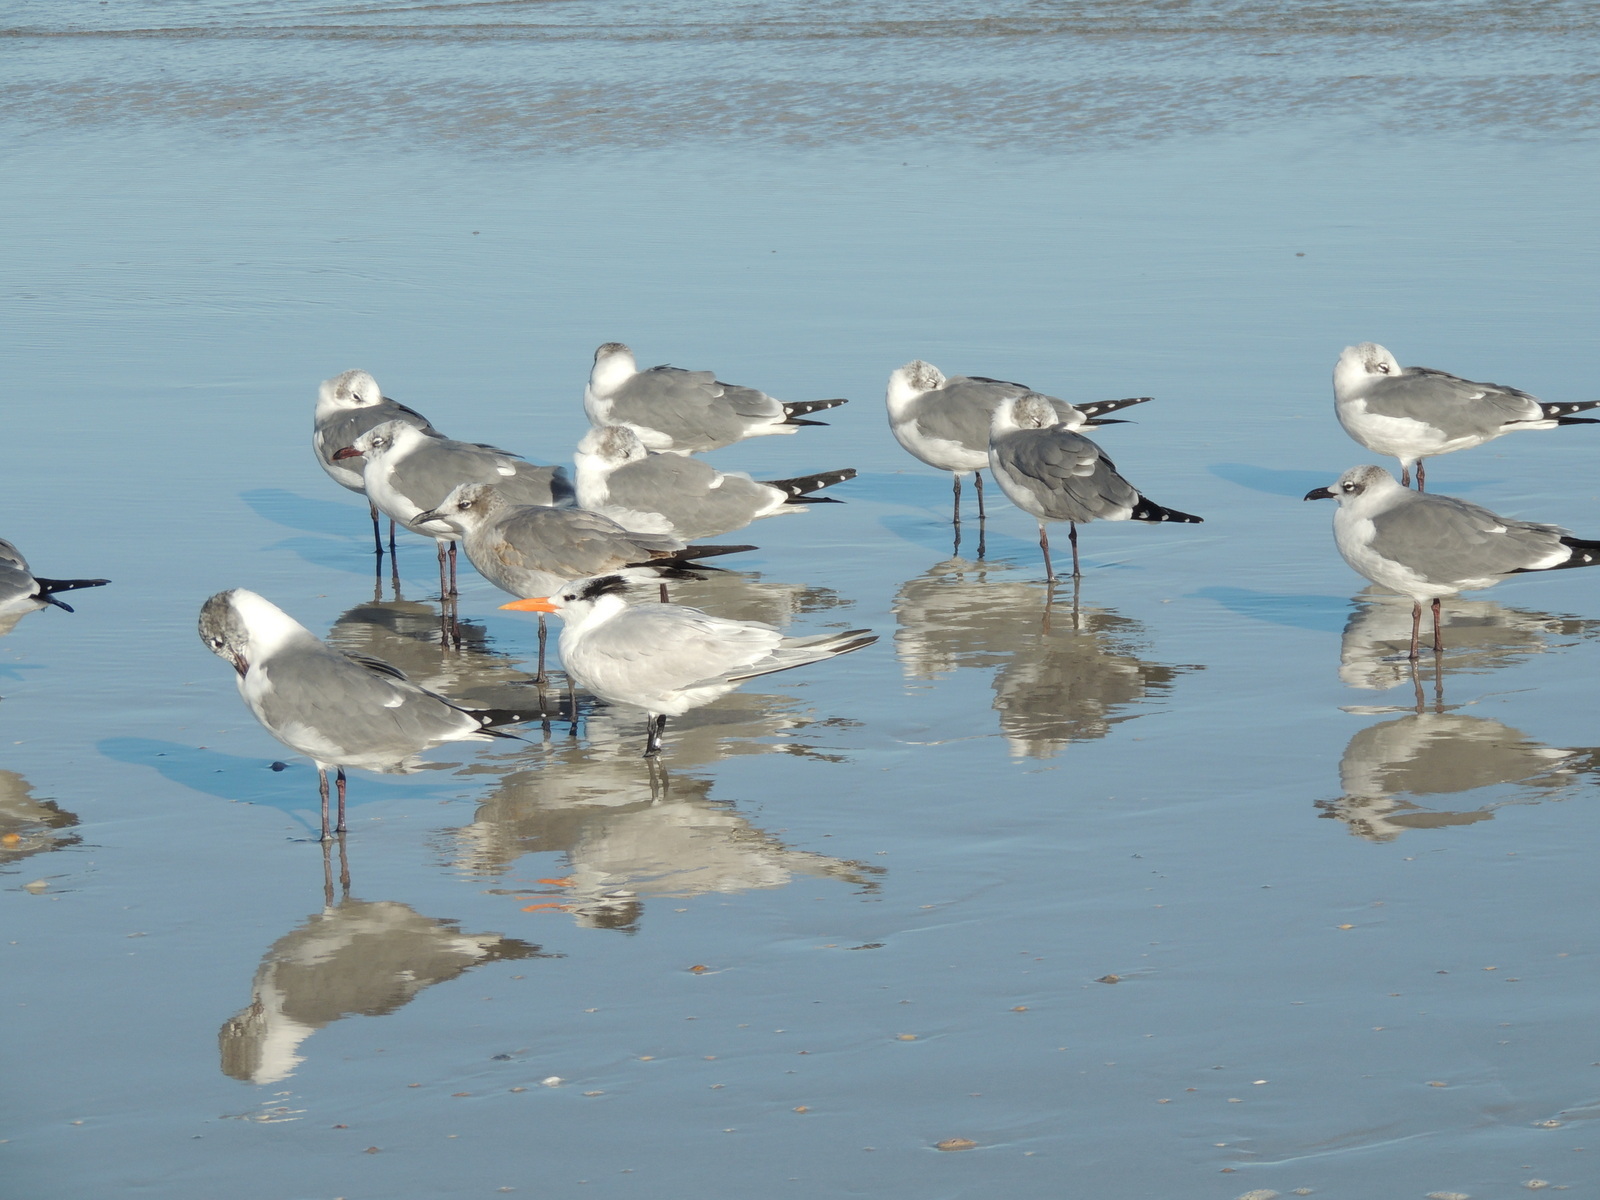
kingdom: Animalia
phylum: Chordata
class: Aves
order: Charadriiformes
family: Laridae
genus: Leucophaeus
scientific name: Leucophaeus atricilla
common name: Laughing gull
